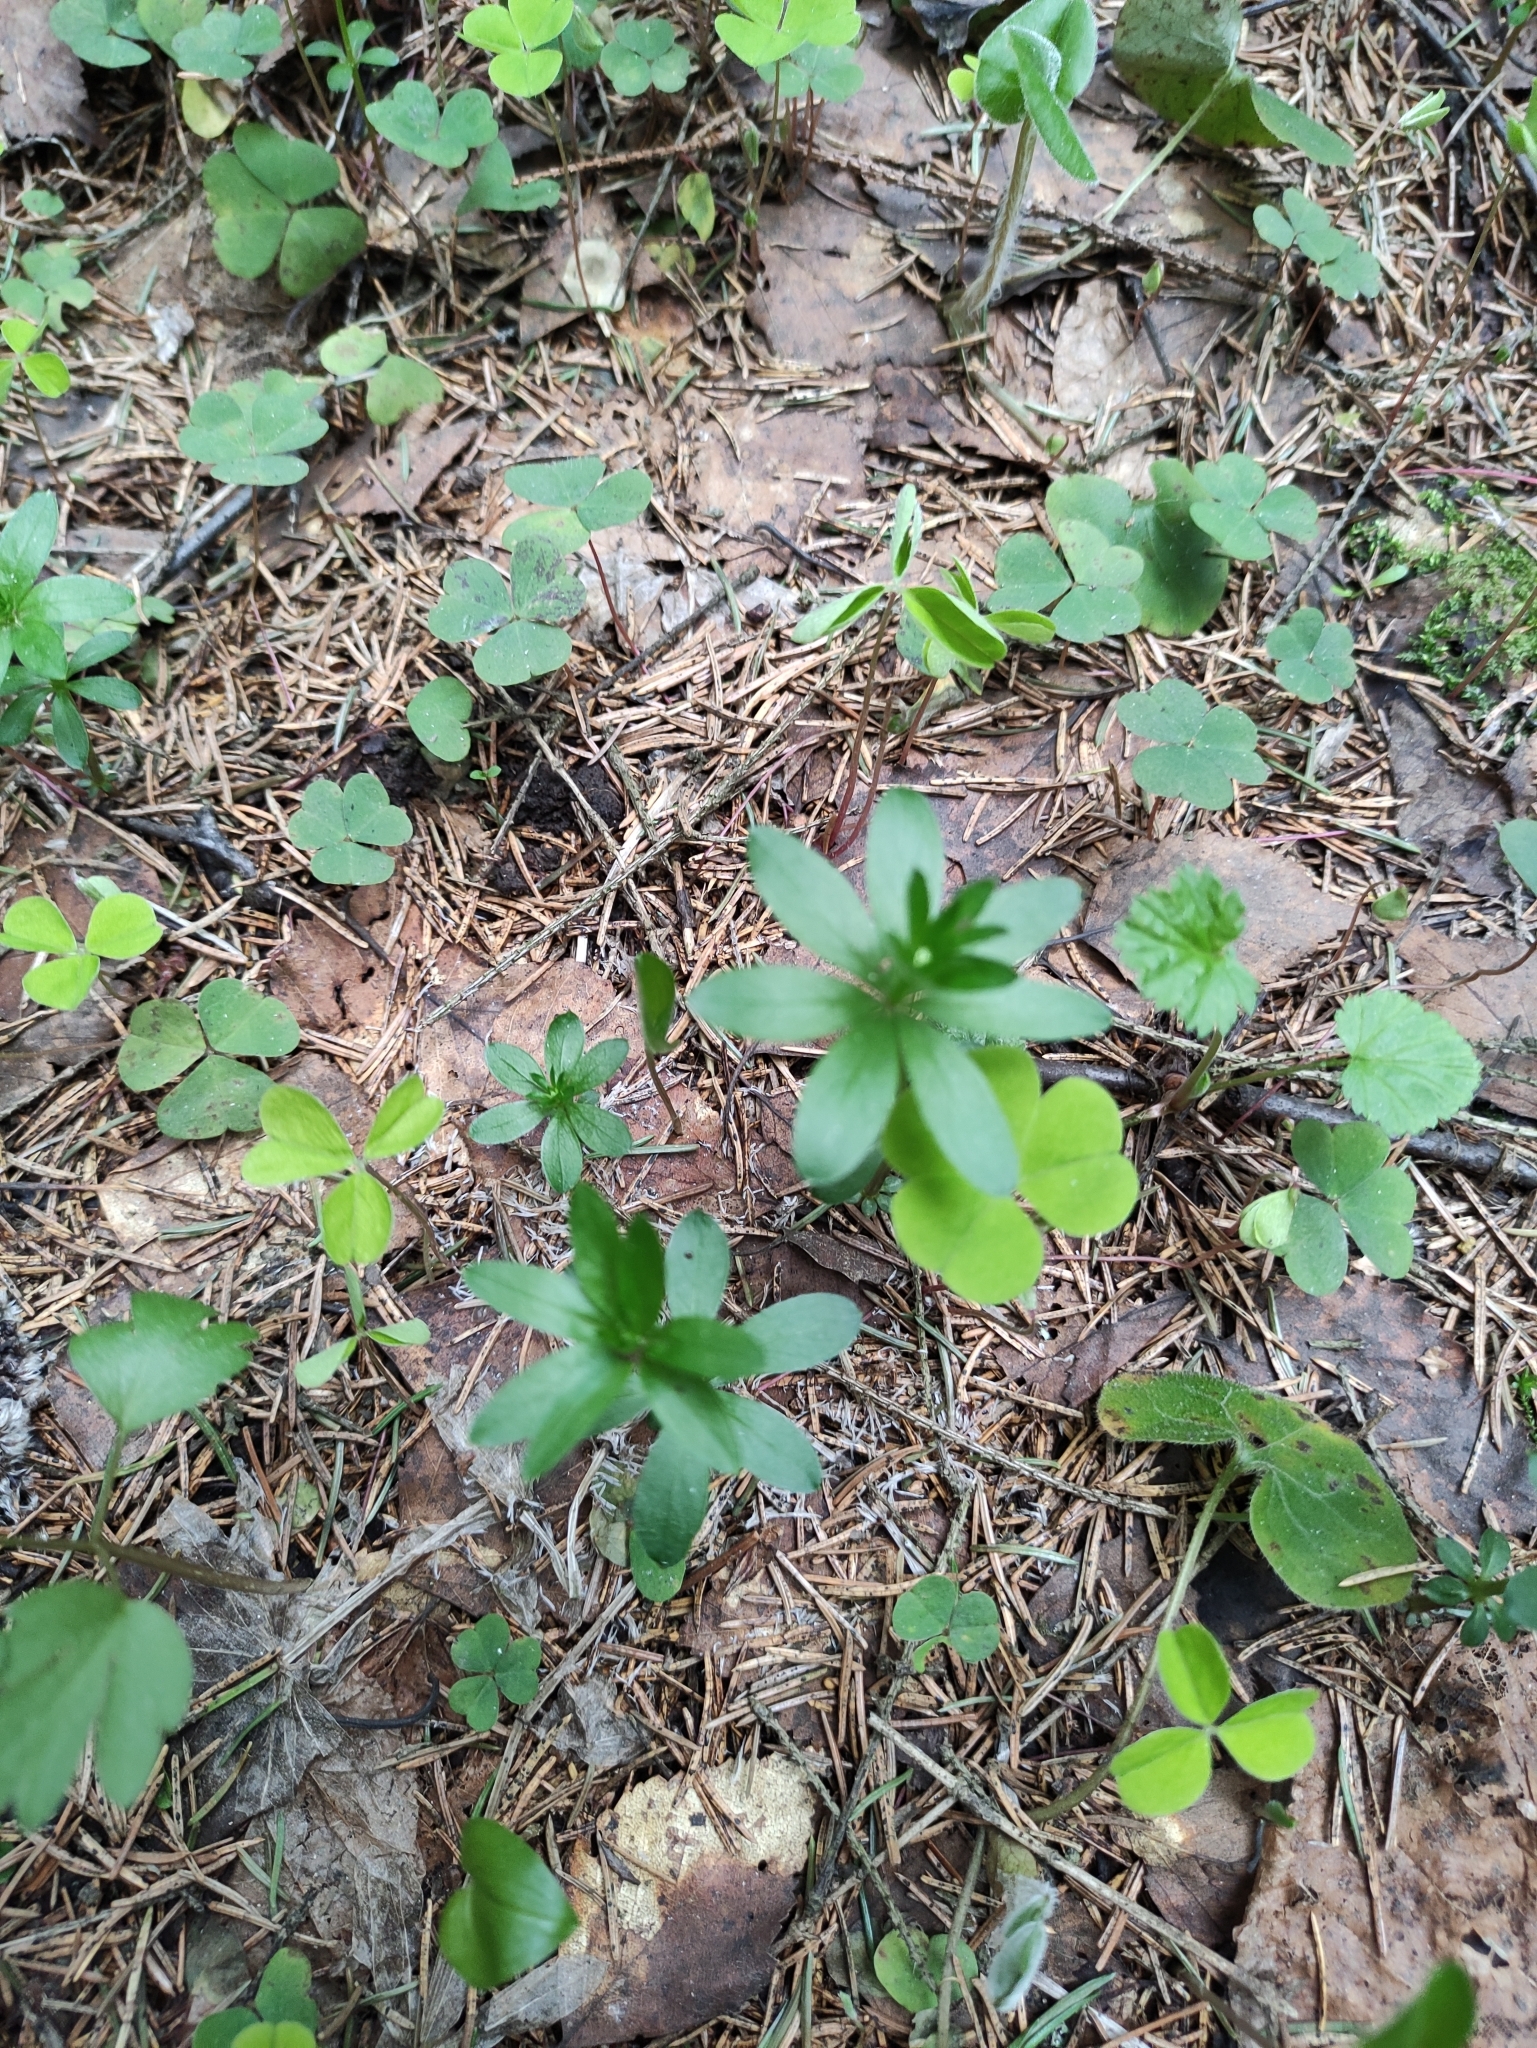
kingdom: Plantae
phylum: Tracheophyta
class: Magnoliopsida
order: Gentianales
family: Rubiaceae
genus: Galium
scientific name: Galium odoratum
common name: Sweet woodruff
